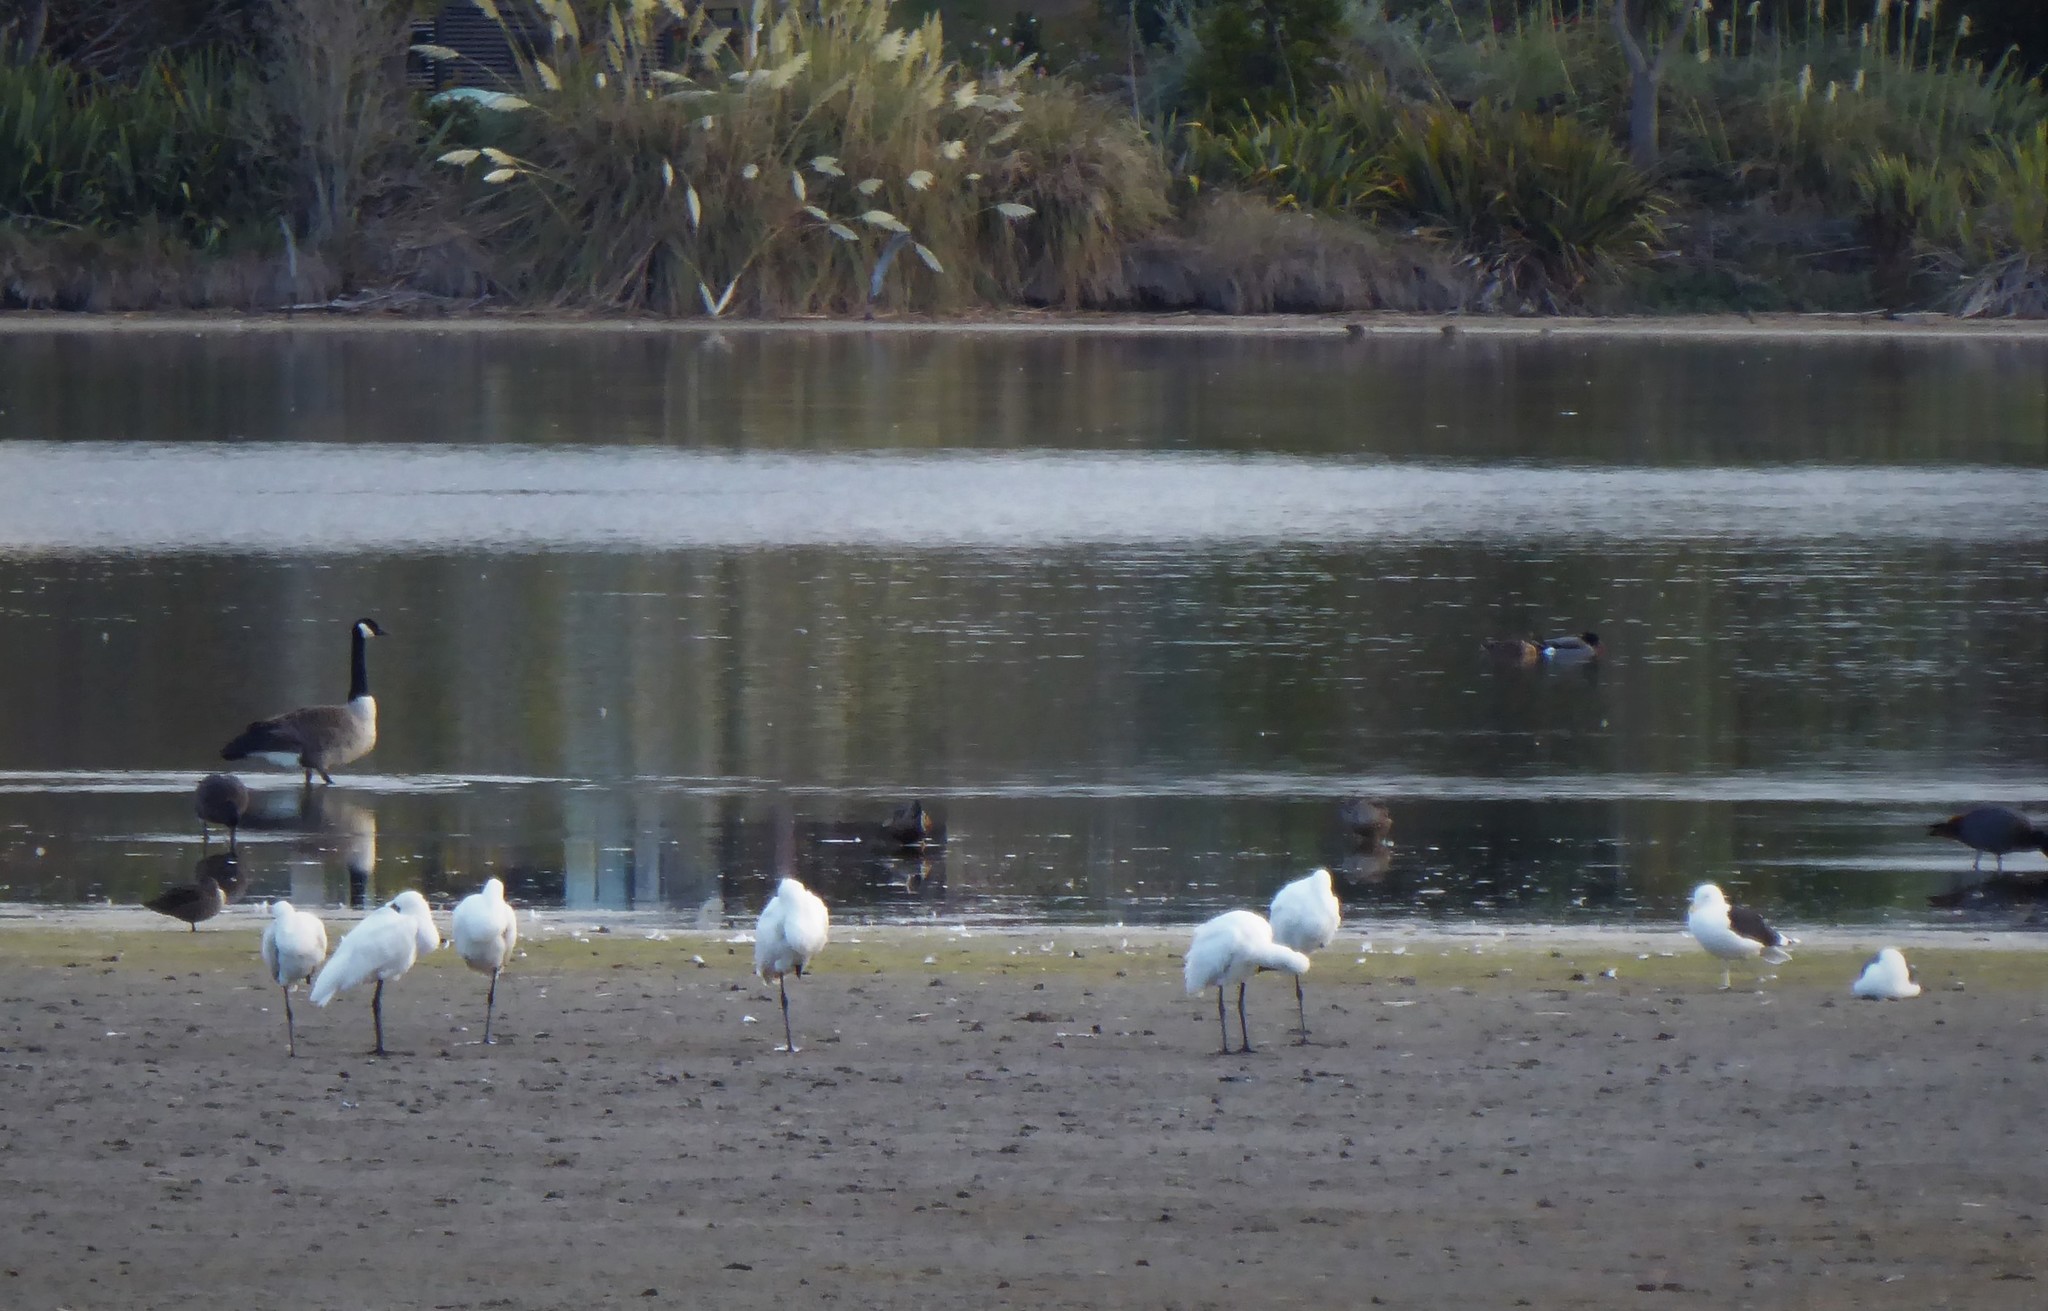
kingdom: Animalia
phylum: Chordata
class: Aves
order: Pelecaniformes
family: Threskiornithidae
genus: Platalea
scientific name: Platalea regia
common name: Royal spoonbill
